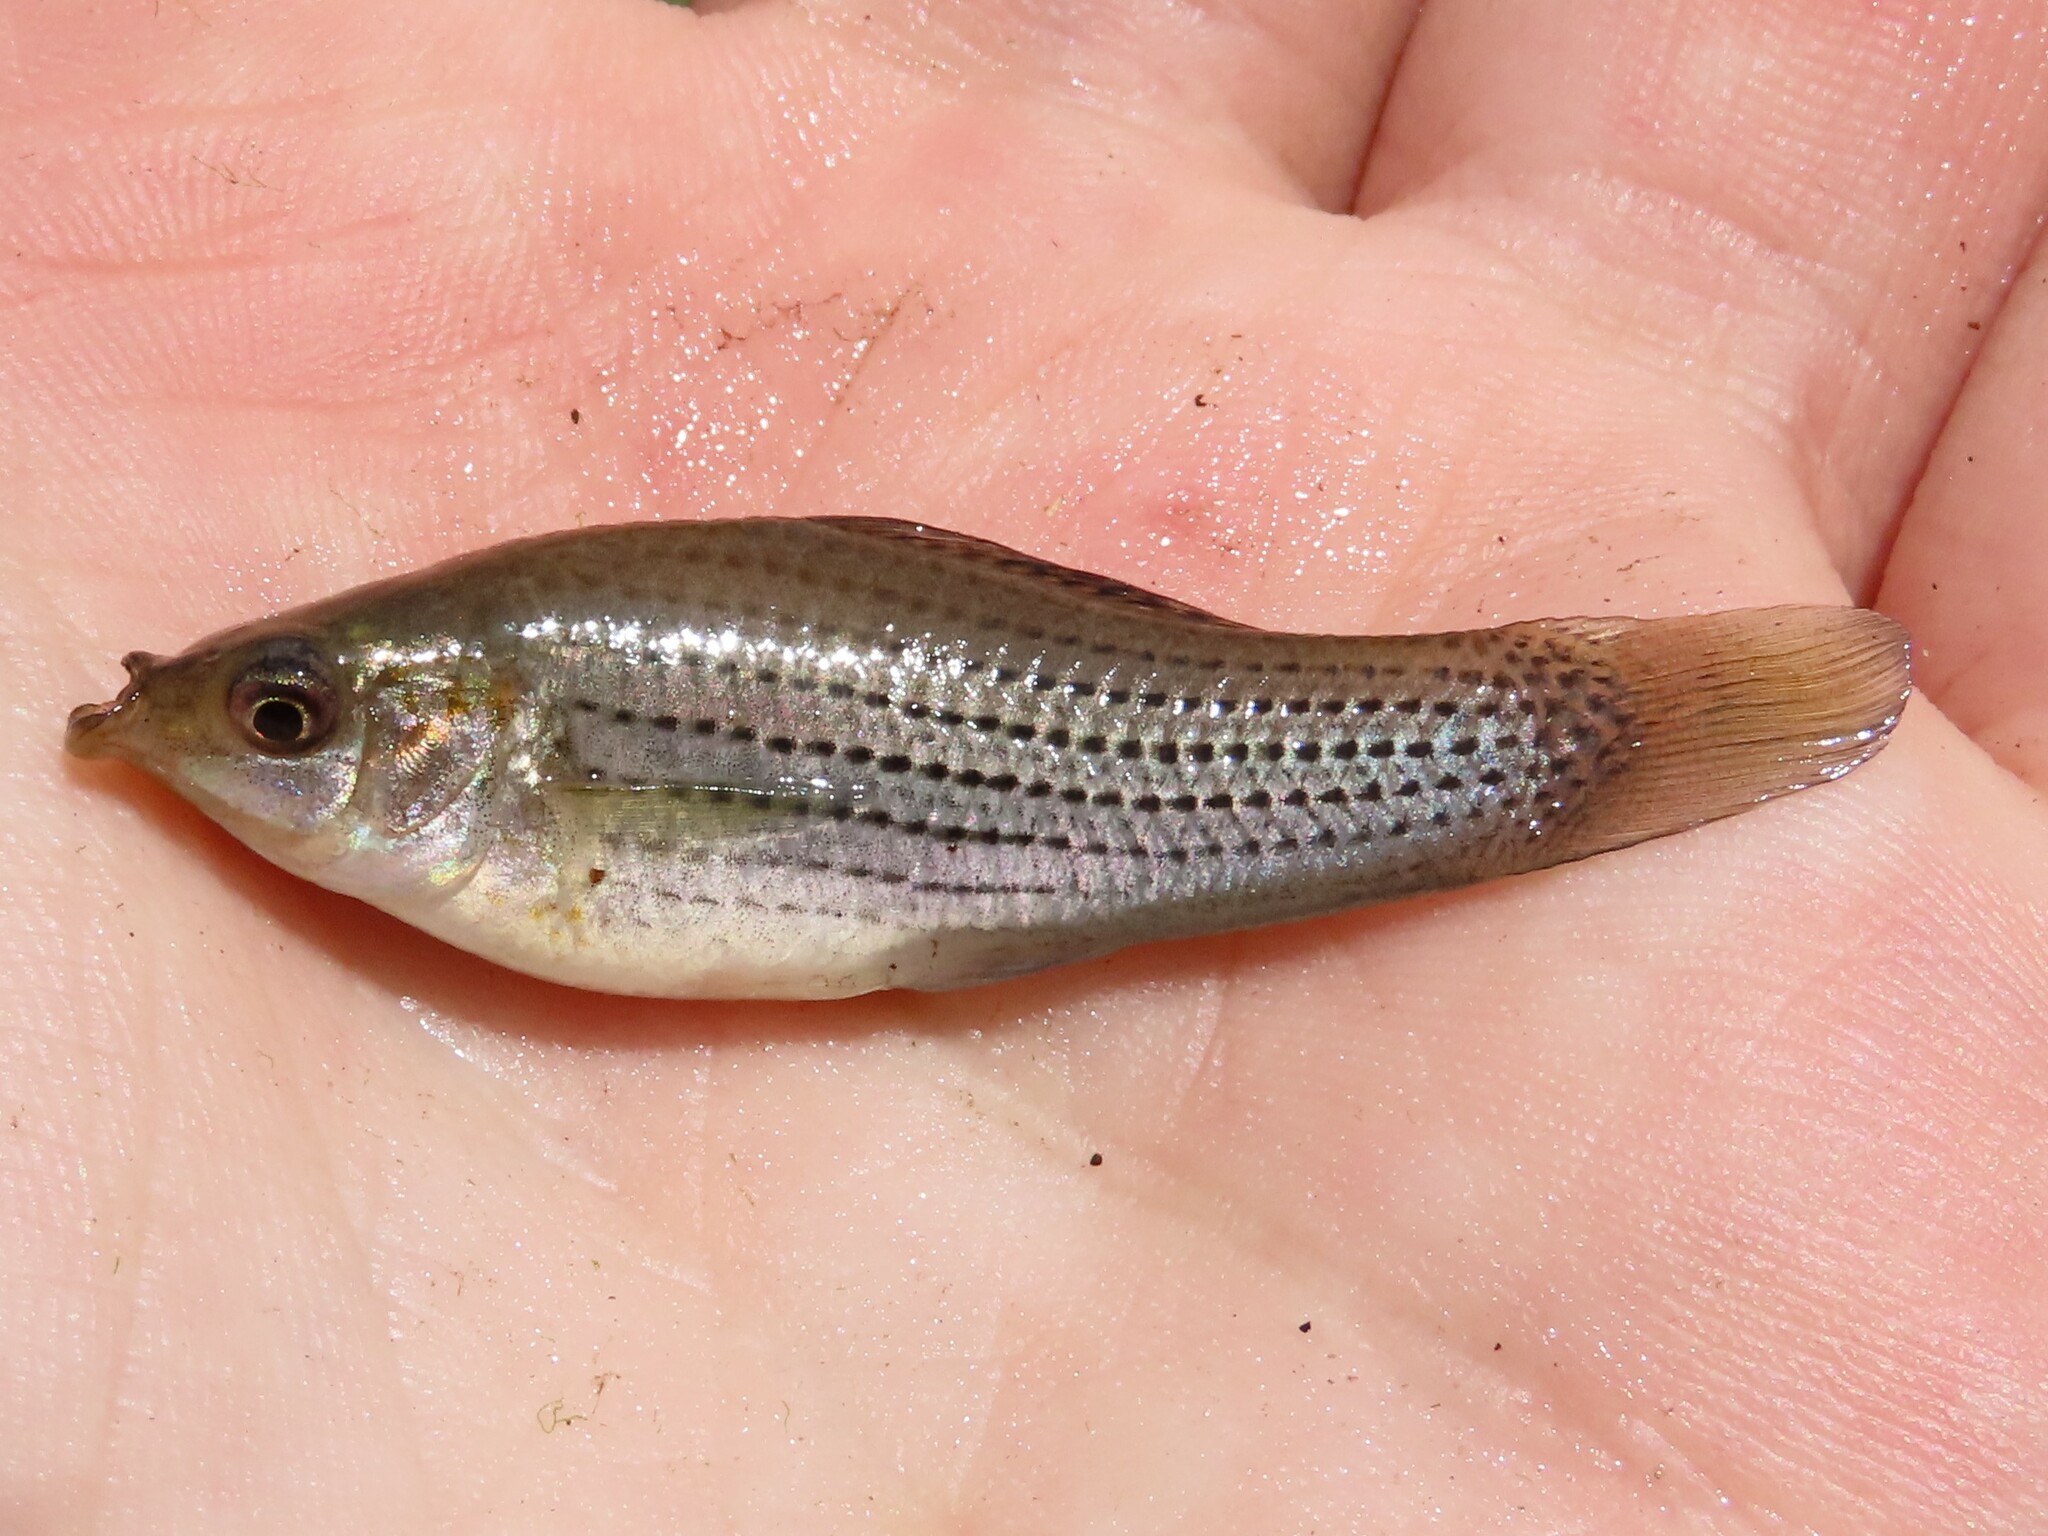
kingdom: Animalia
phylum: Chordata
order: Cyprinodontiformes
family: Poeciliidae
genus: Poecilia
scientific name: Poecilia latipinna
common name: Sailfin molly
